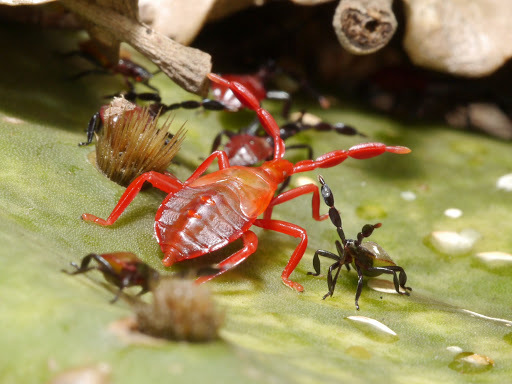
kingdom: Animalia
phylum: Arthropoda
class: Insecta
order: Hemiptera
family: Coreidae
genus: Chelinidea
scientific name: Chelinidea vittiger
